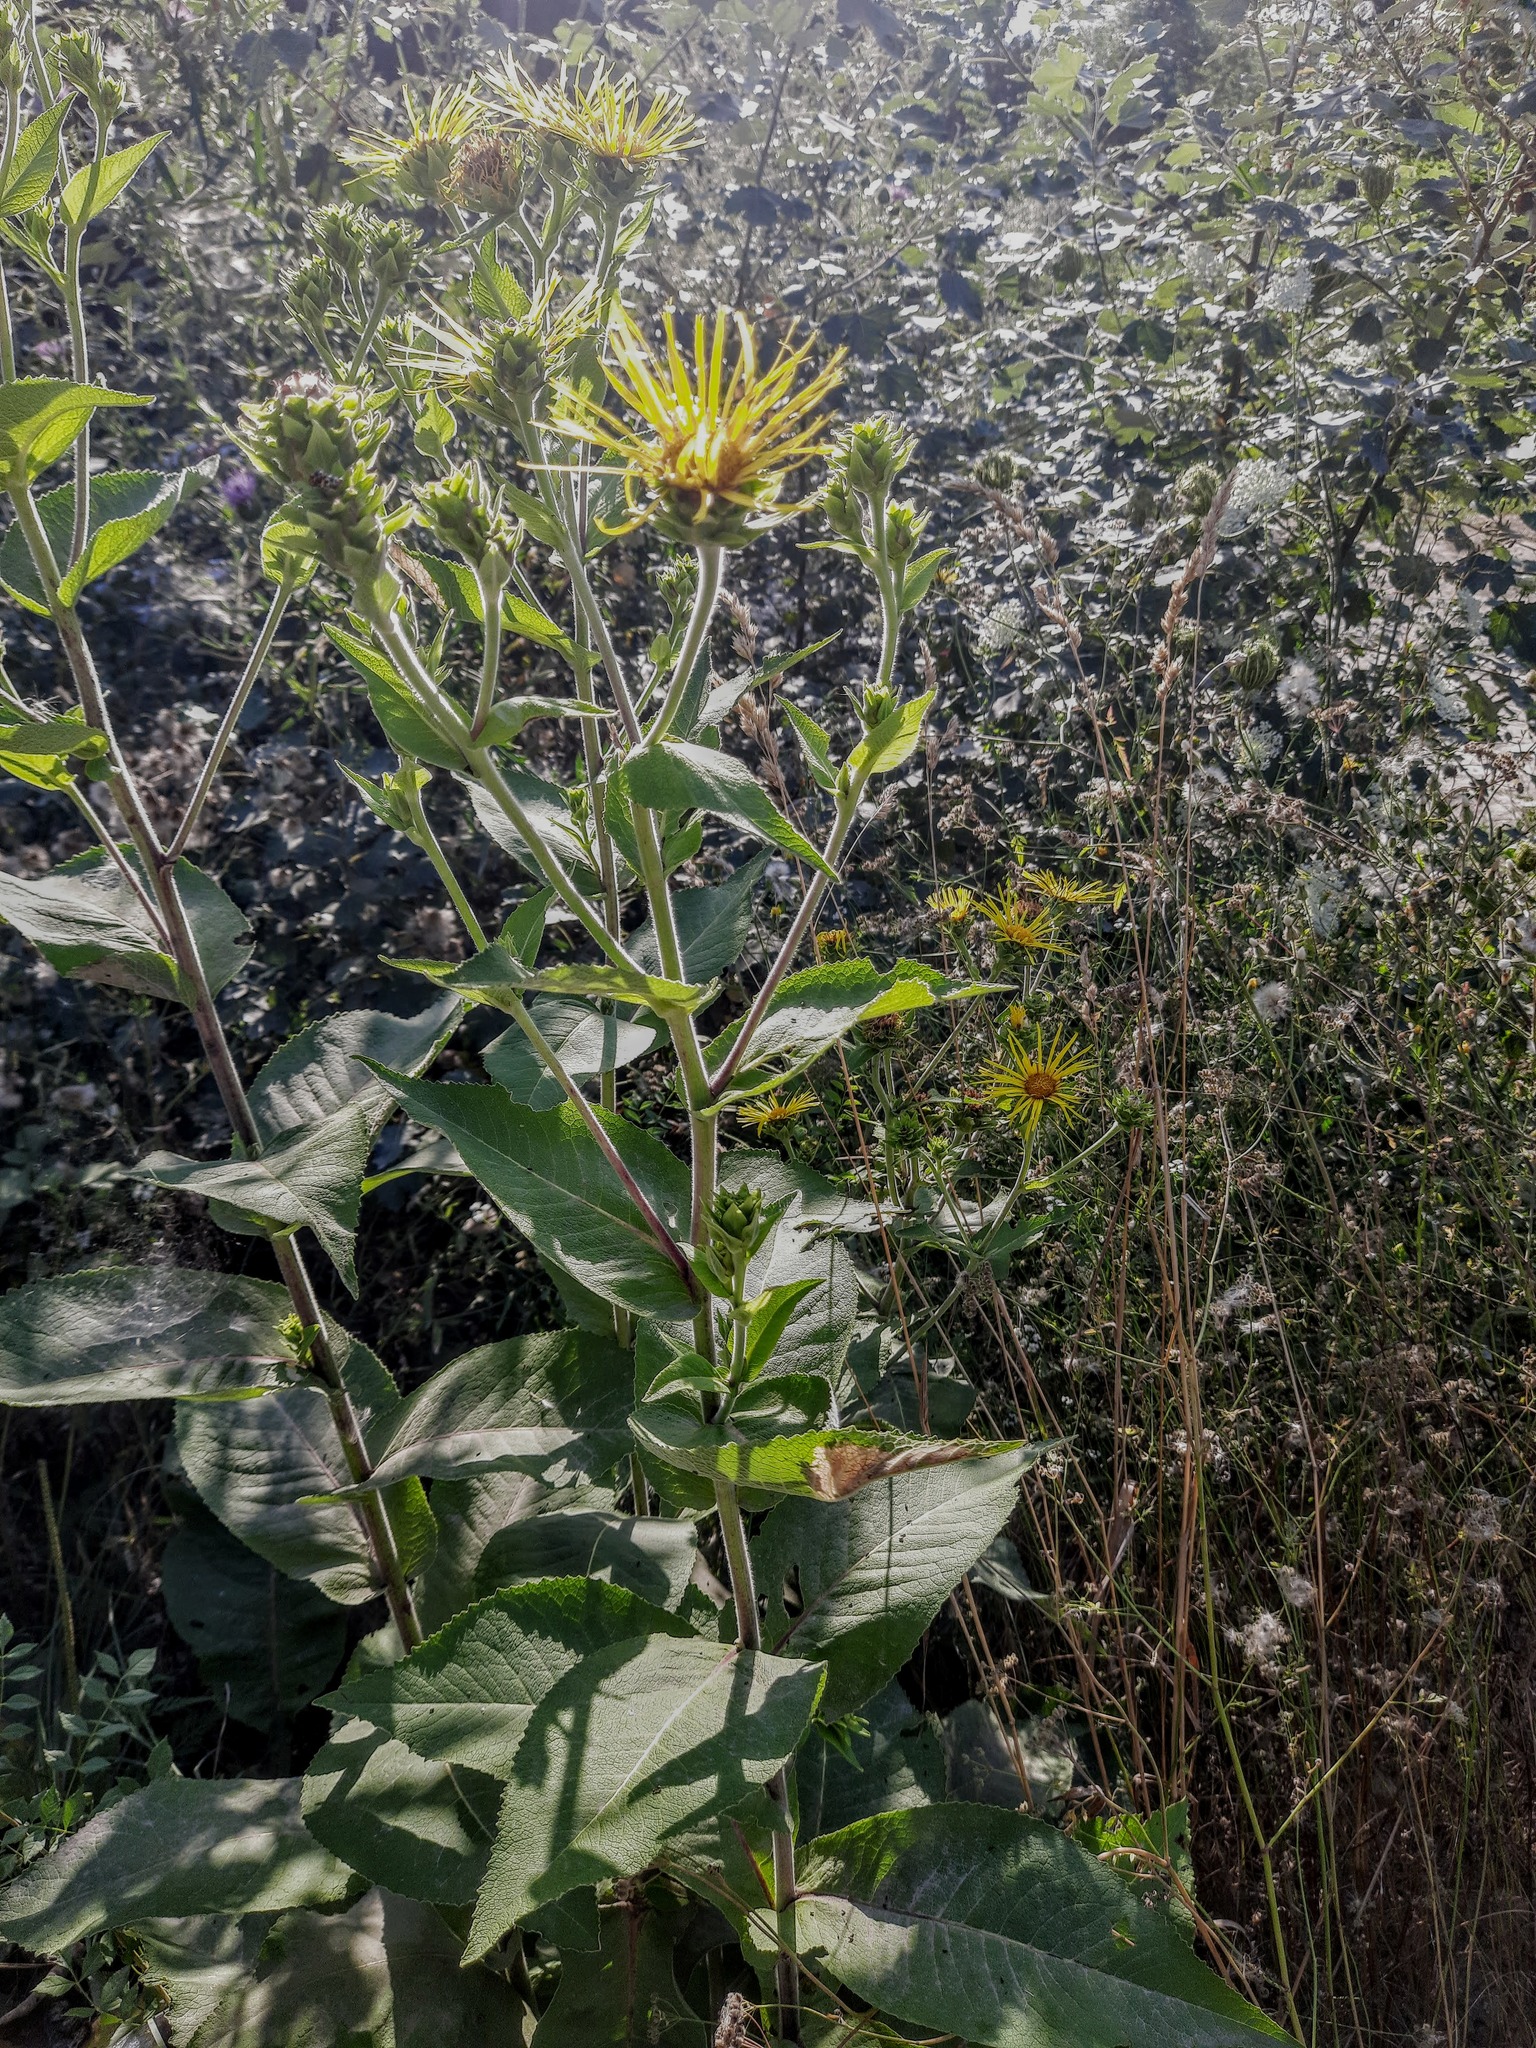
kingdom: Plantae
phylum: Tracheophyta
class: Magnoliopsida
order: Asterales
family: Asteraceae
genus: Inula
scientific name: Inula helenium
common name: Elecampane
